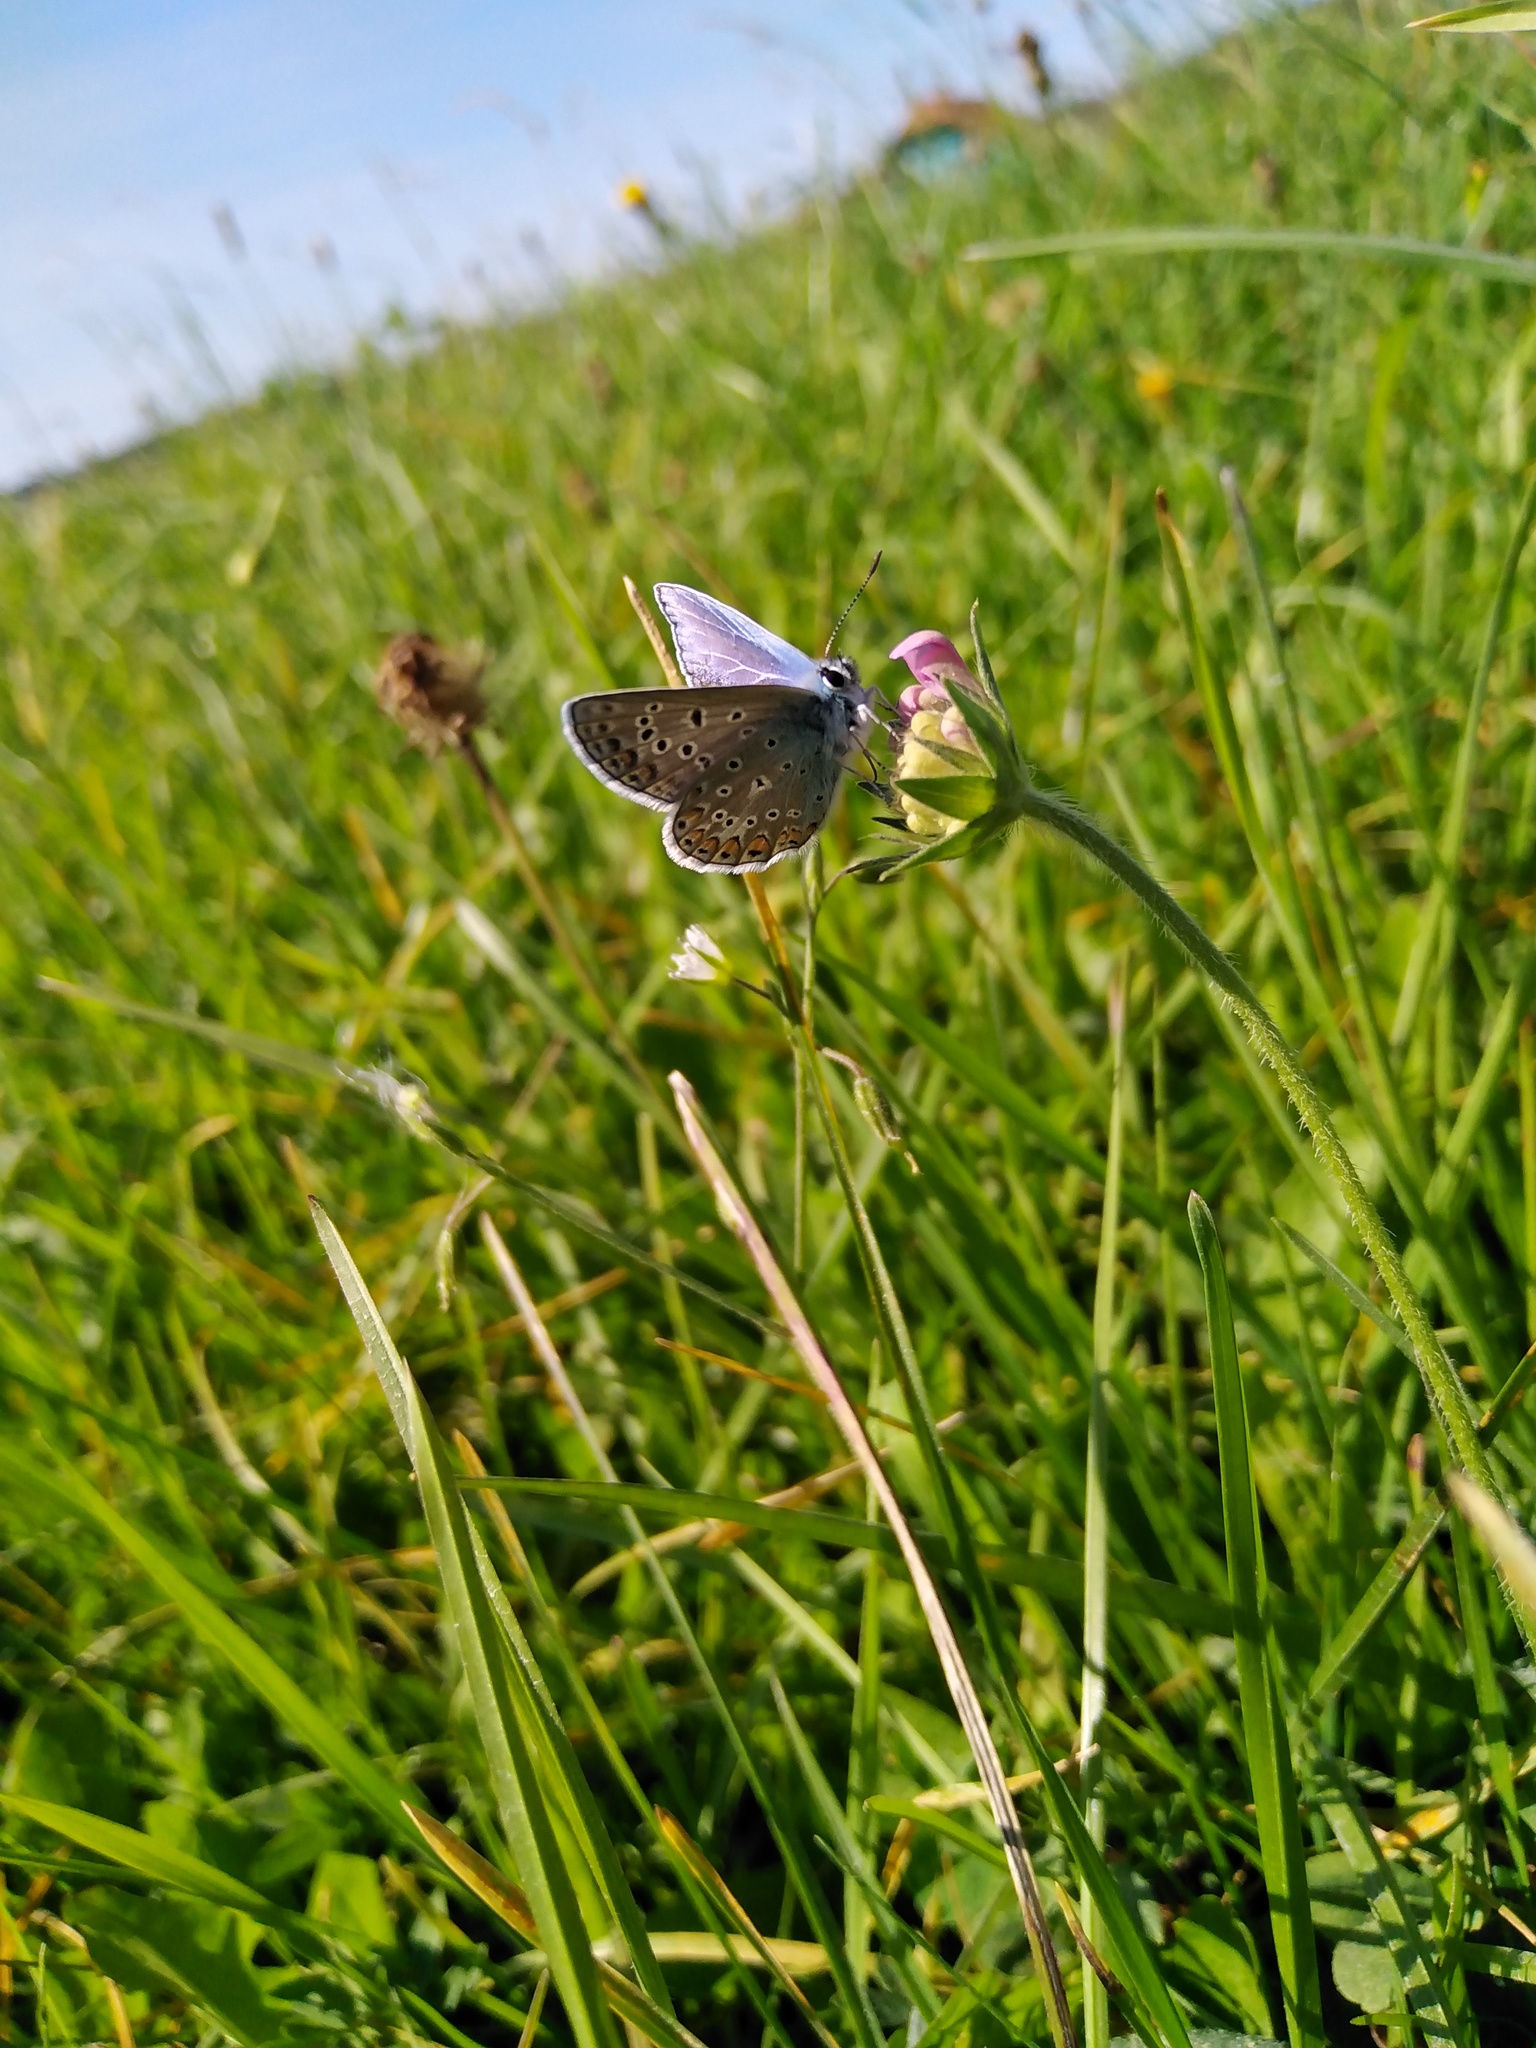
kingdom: Animalia
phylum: Arthropoda
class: Insecta
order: Lepidoptera
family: Lycaenidae
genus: Polyommatus
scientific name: Polyommatus icarus
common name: Common blue
